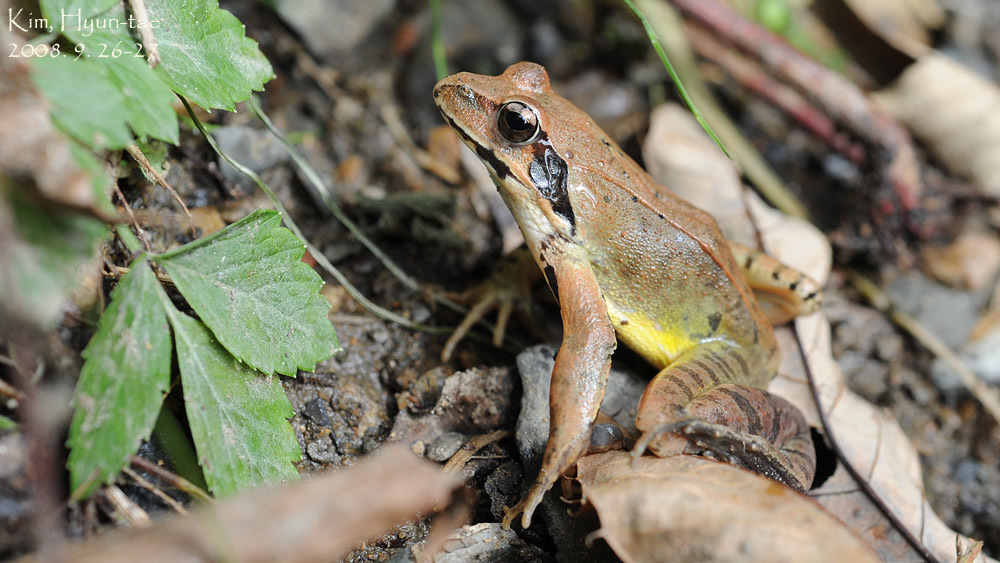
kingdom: Animalia
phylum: Chordata
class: Amphibia
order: Anura
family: Ranidae
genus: Rana
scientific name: Rana uenoi
